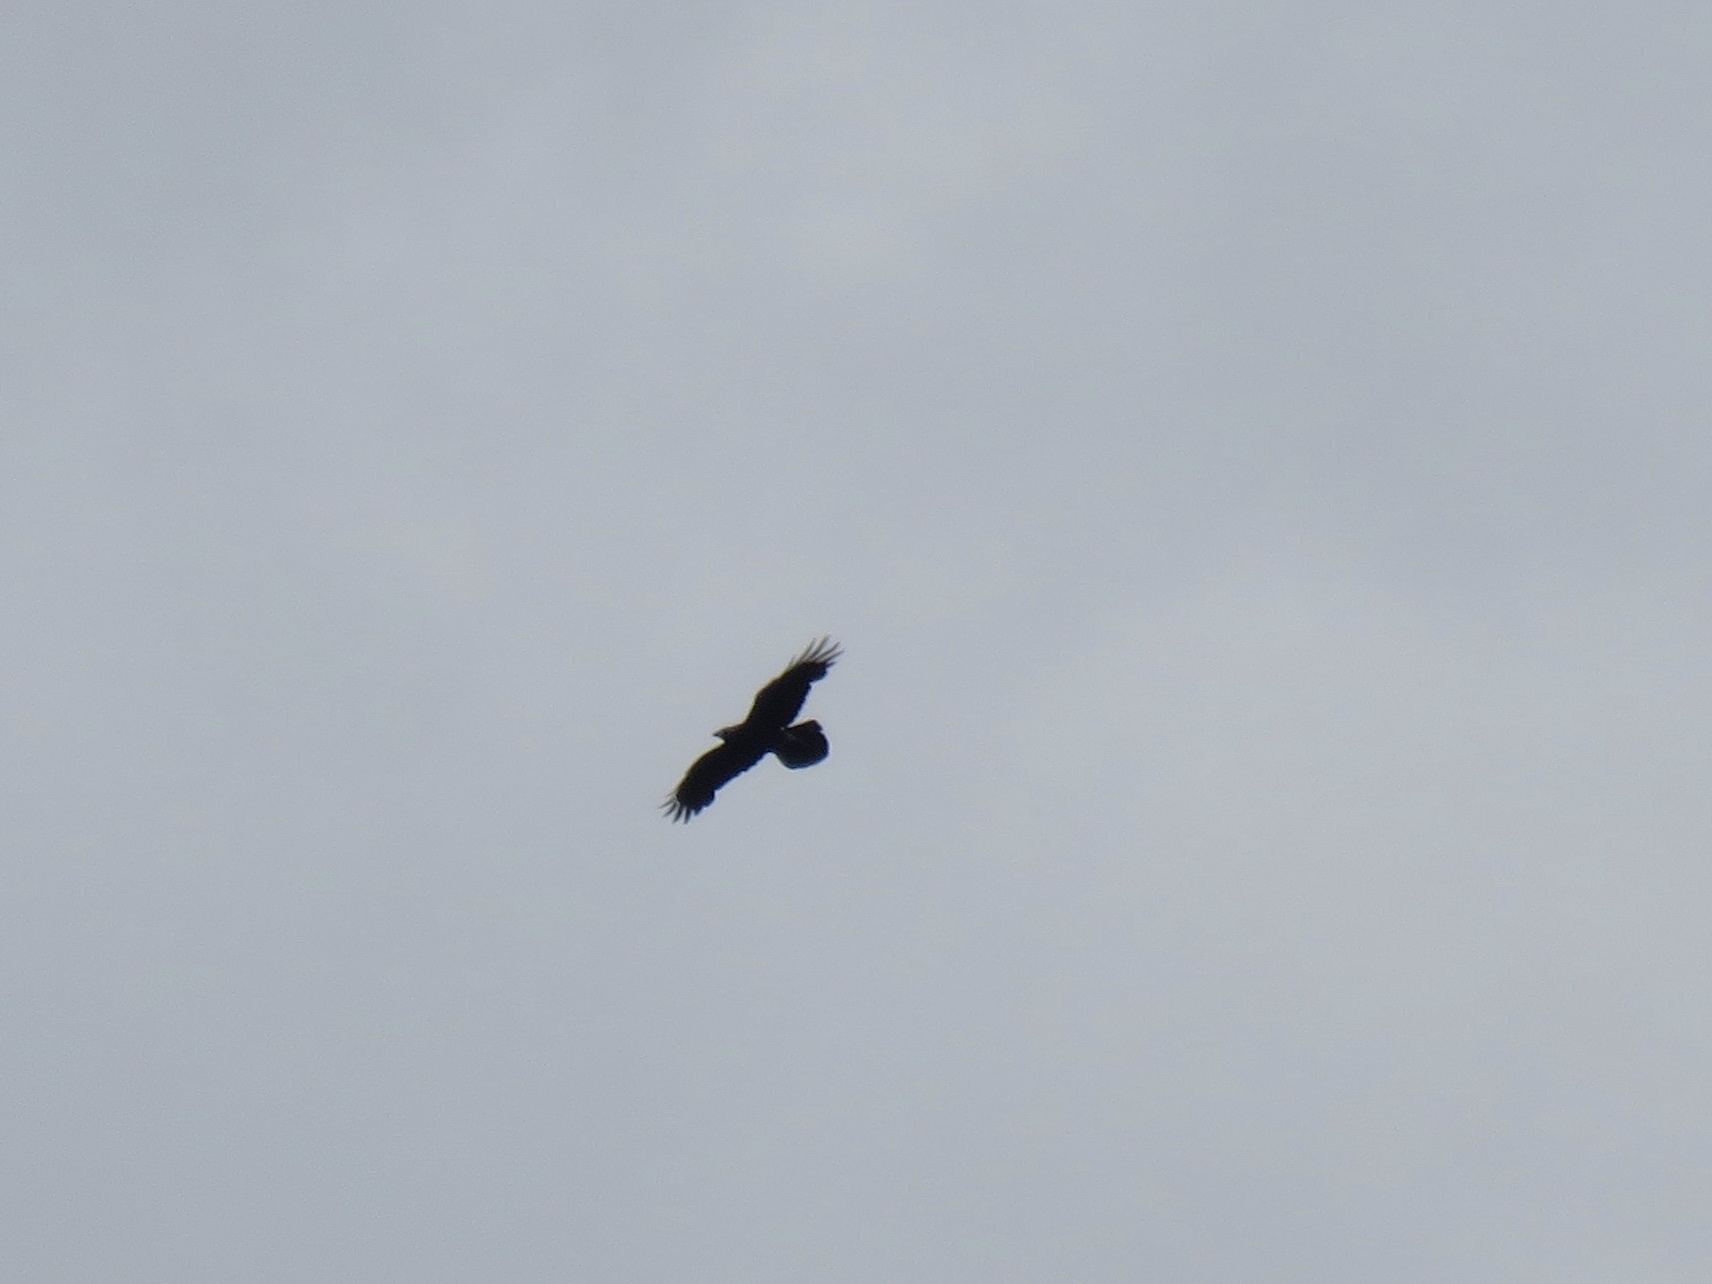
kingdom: Animalia
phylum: Chordata
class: Aves
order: Passeriformes
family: Corvidae
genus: Corvus
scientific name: Corvus corax
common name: Common raven
